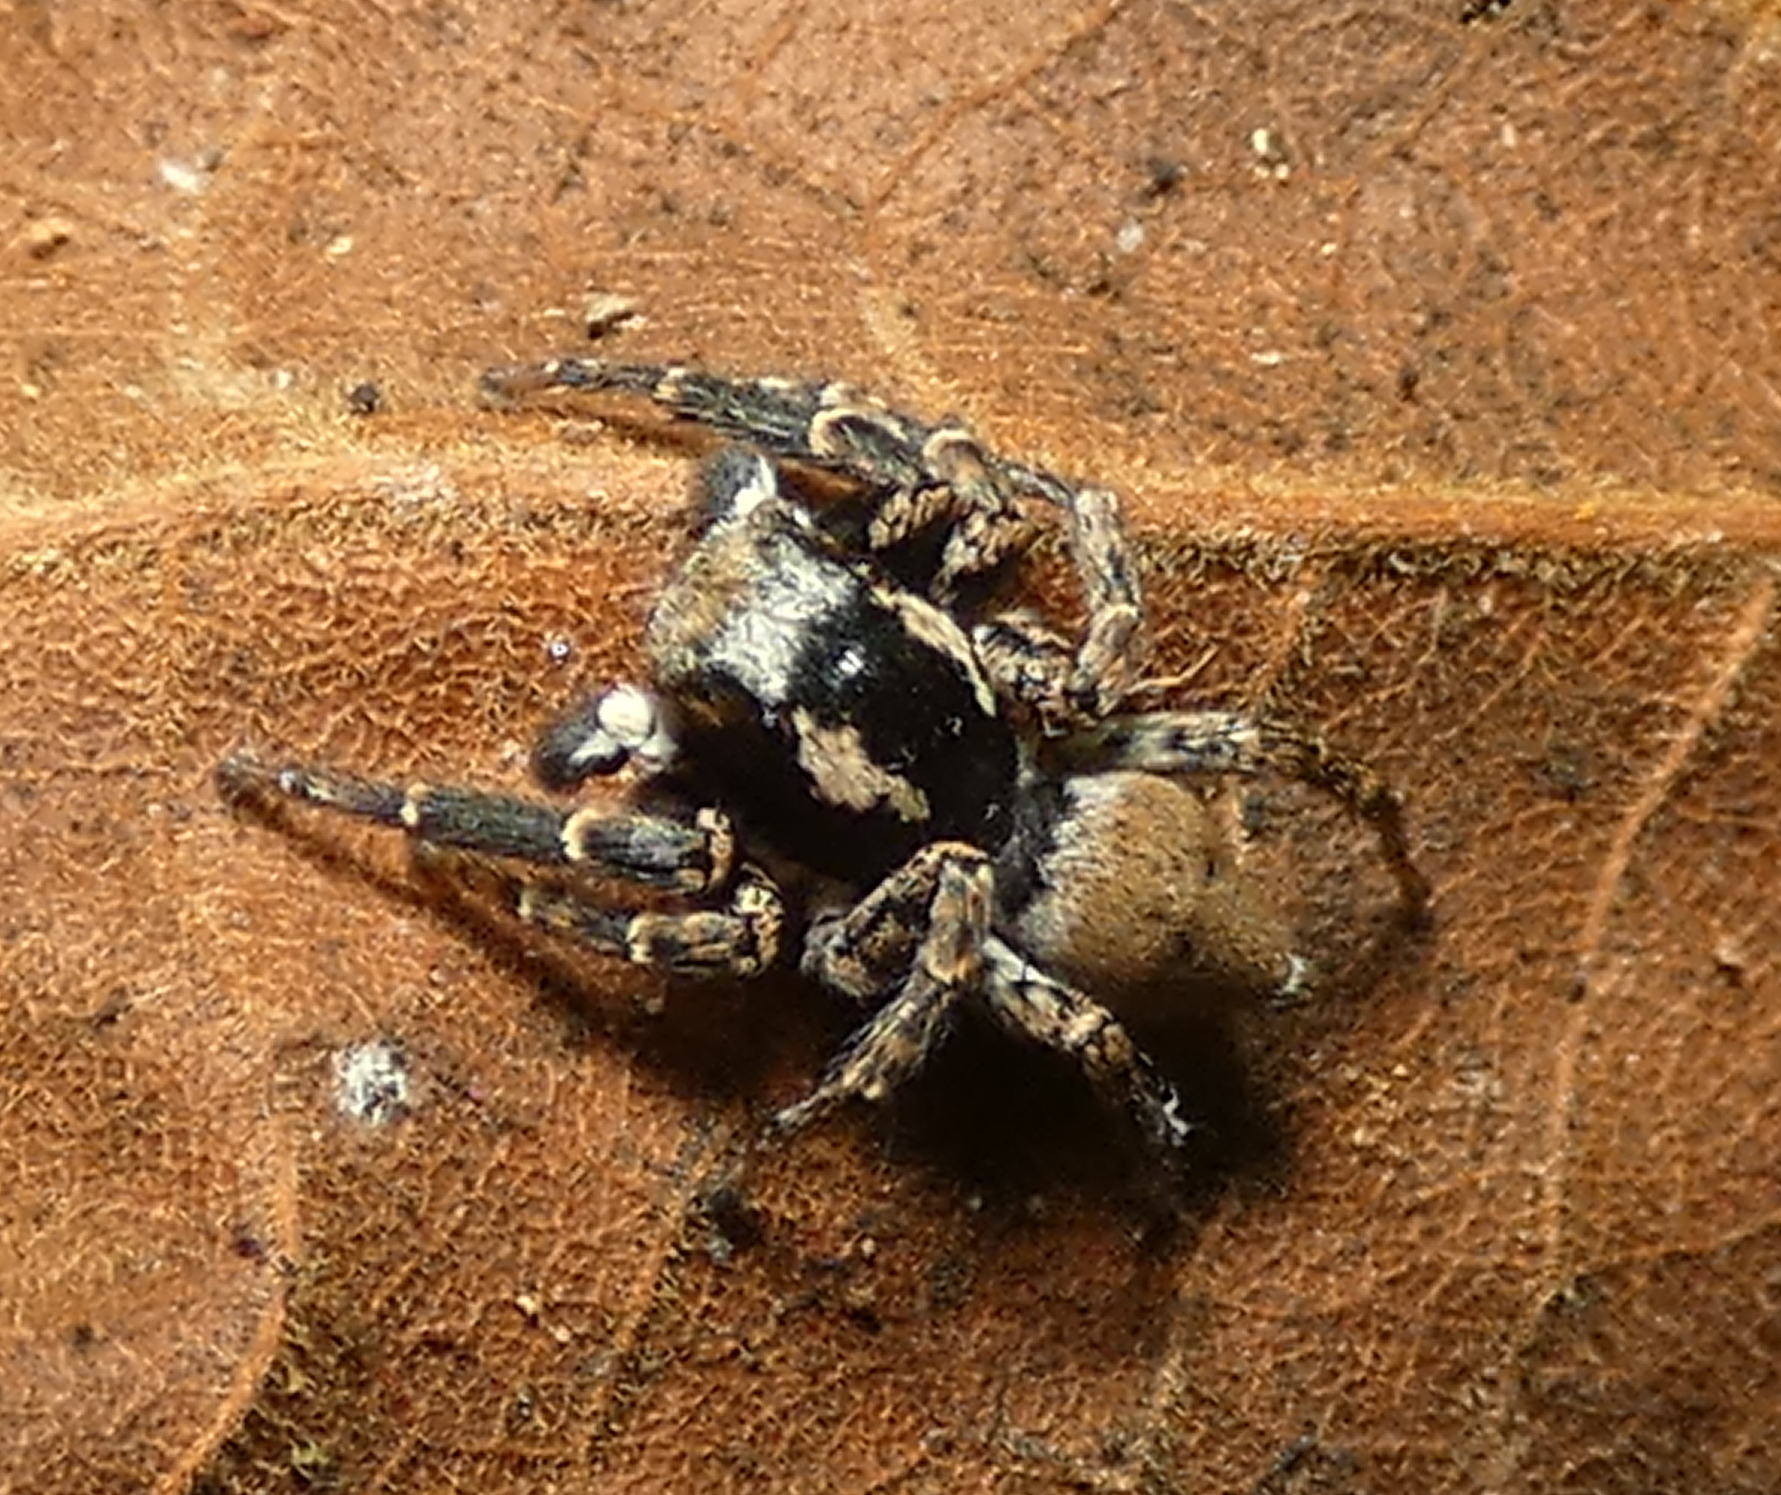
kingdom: Animalia
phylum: Arthropoda
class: Arachnida
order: Araneae
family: Salticidae
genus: Sumampattus
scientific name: Sumampattus quinqueradiatus
